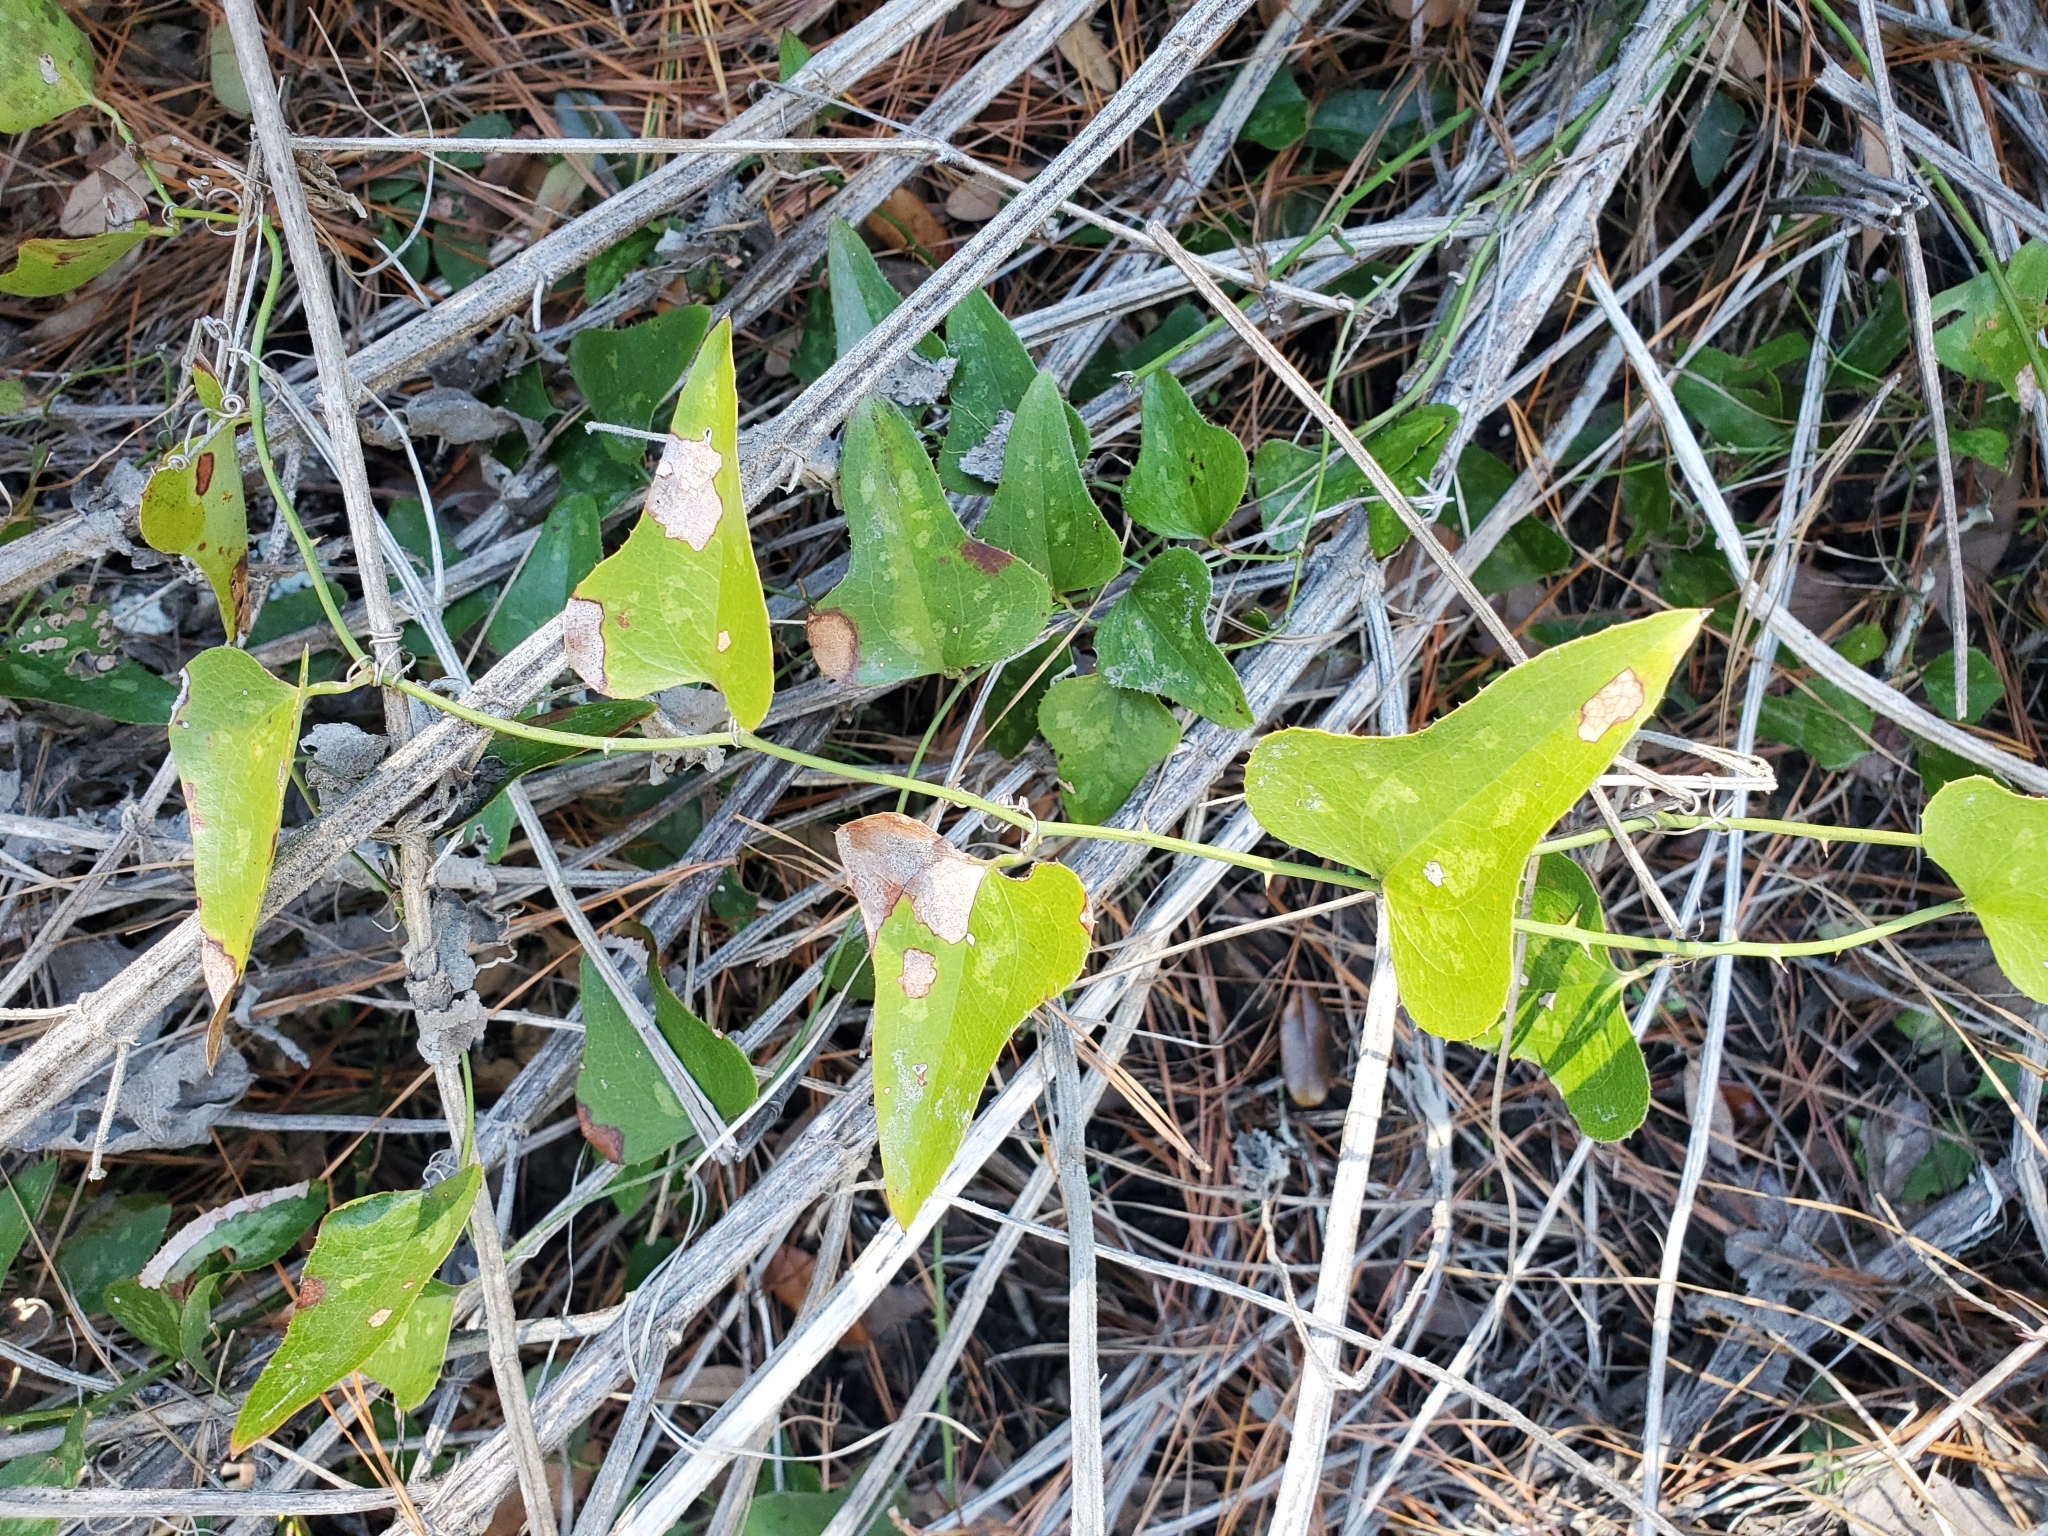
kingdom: Plantae
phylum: Tracheophyta
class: Liliopsida
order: Liliales
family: Smilacaceae
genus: Smilax
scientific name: Smilax bona-nox
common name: Catbrier
